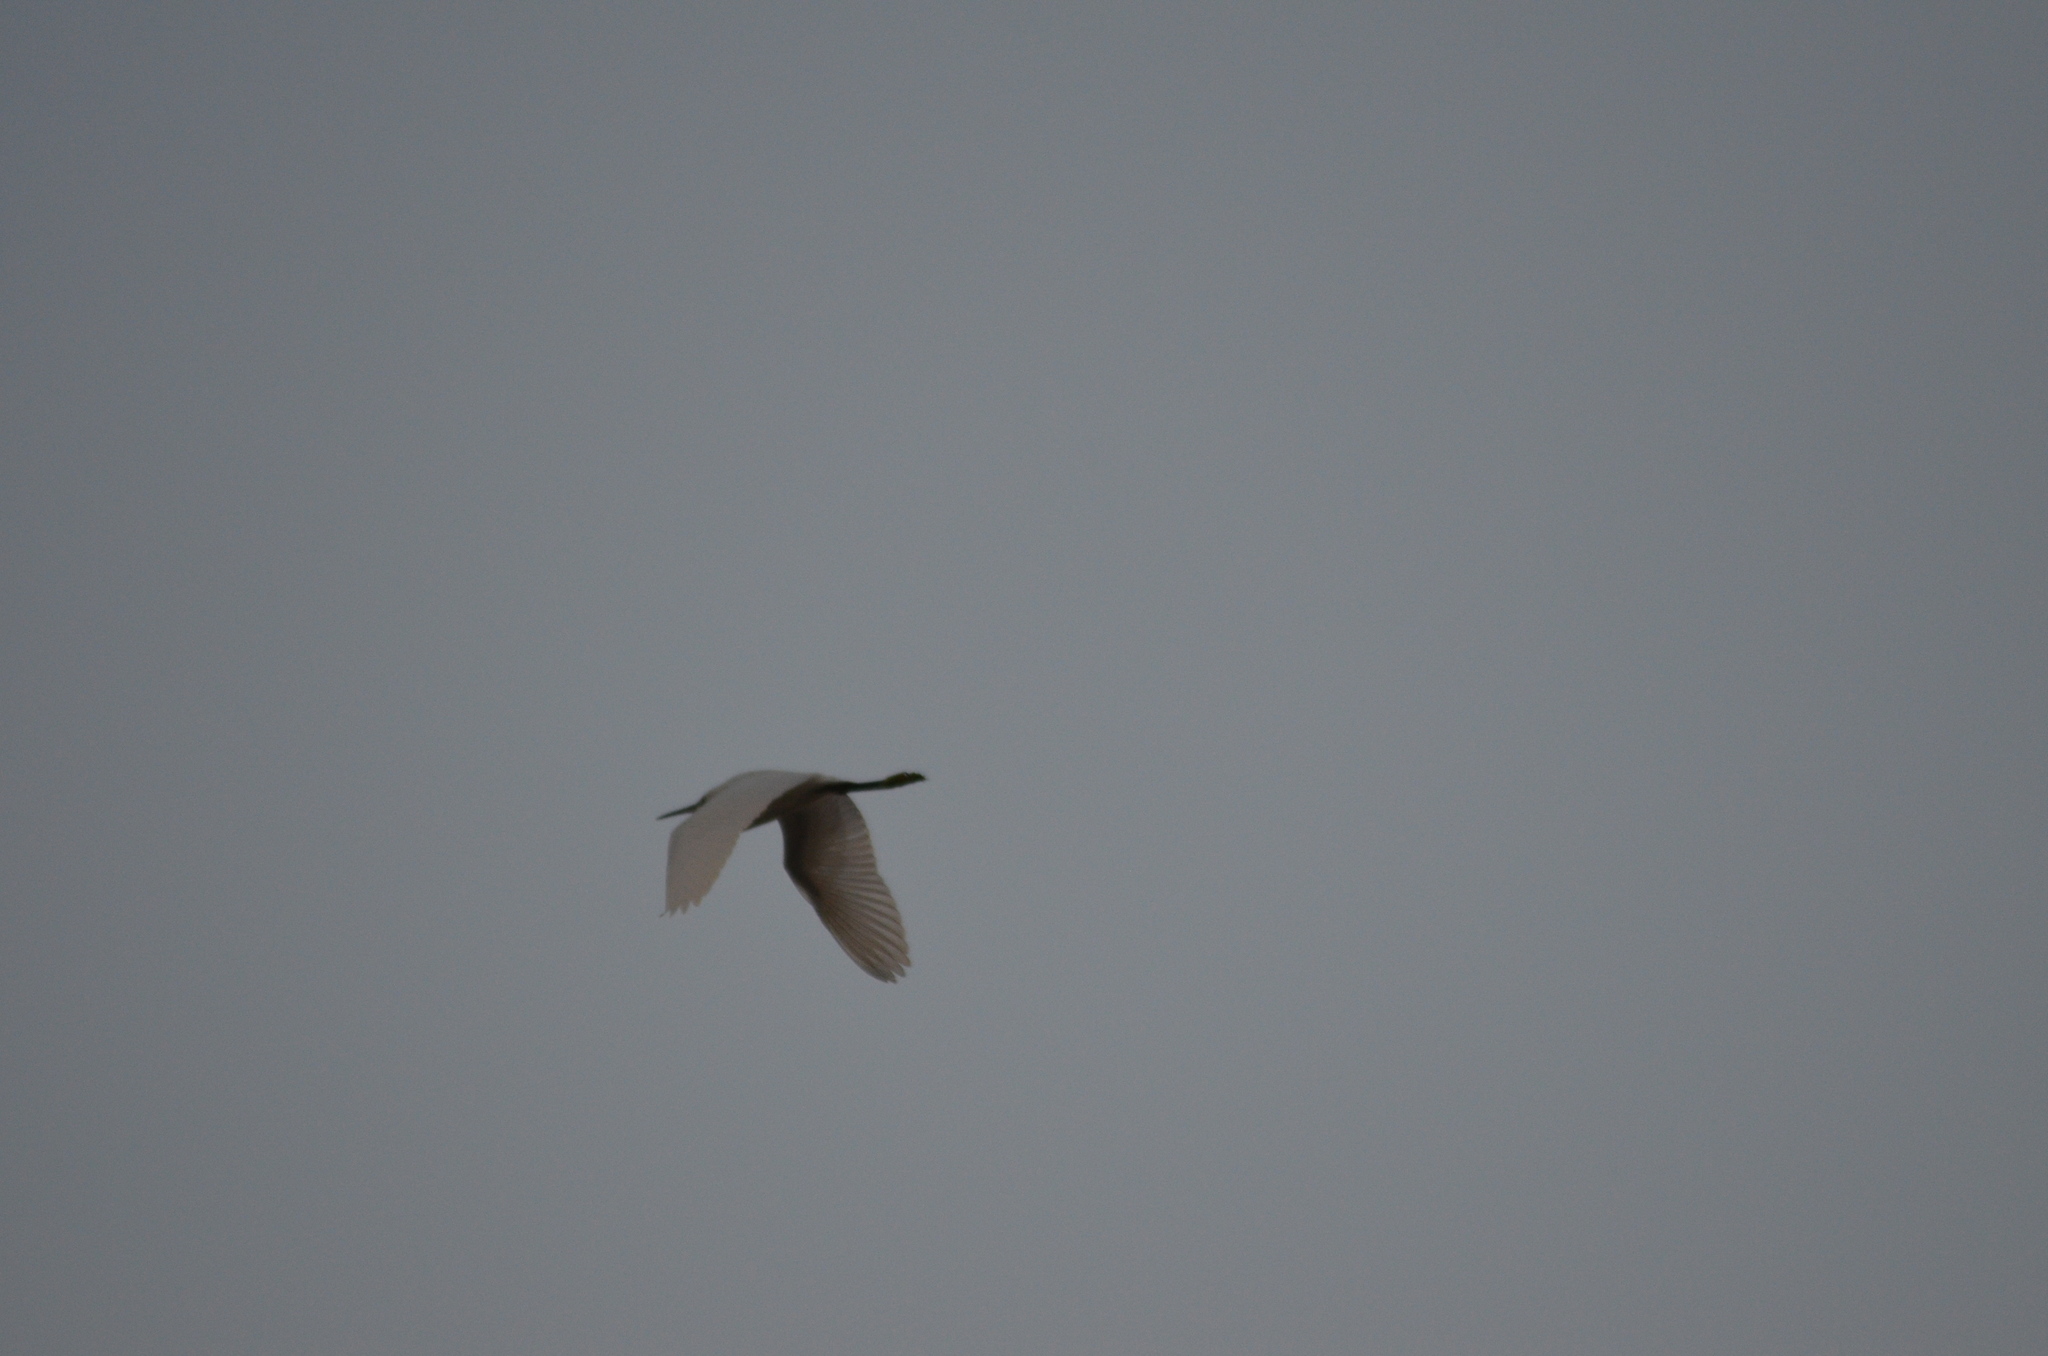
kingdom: Animalia
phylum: Chordata
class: Aves
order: Pelecaniformes
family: Ardeidae
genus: Bubulcus
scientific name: Bubulcus ibis
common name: Cattle egret
